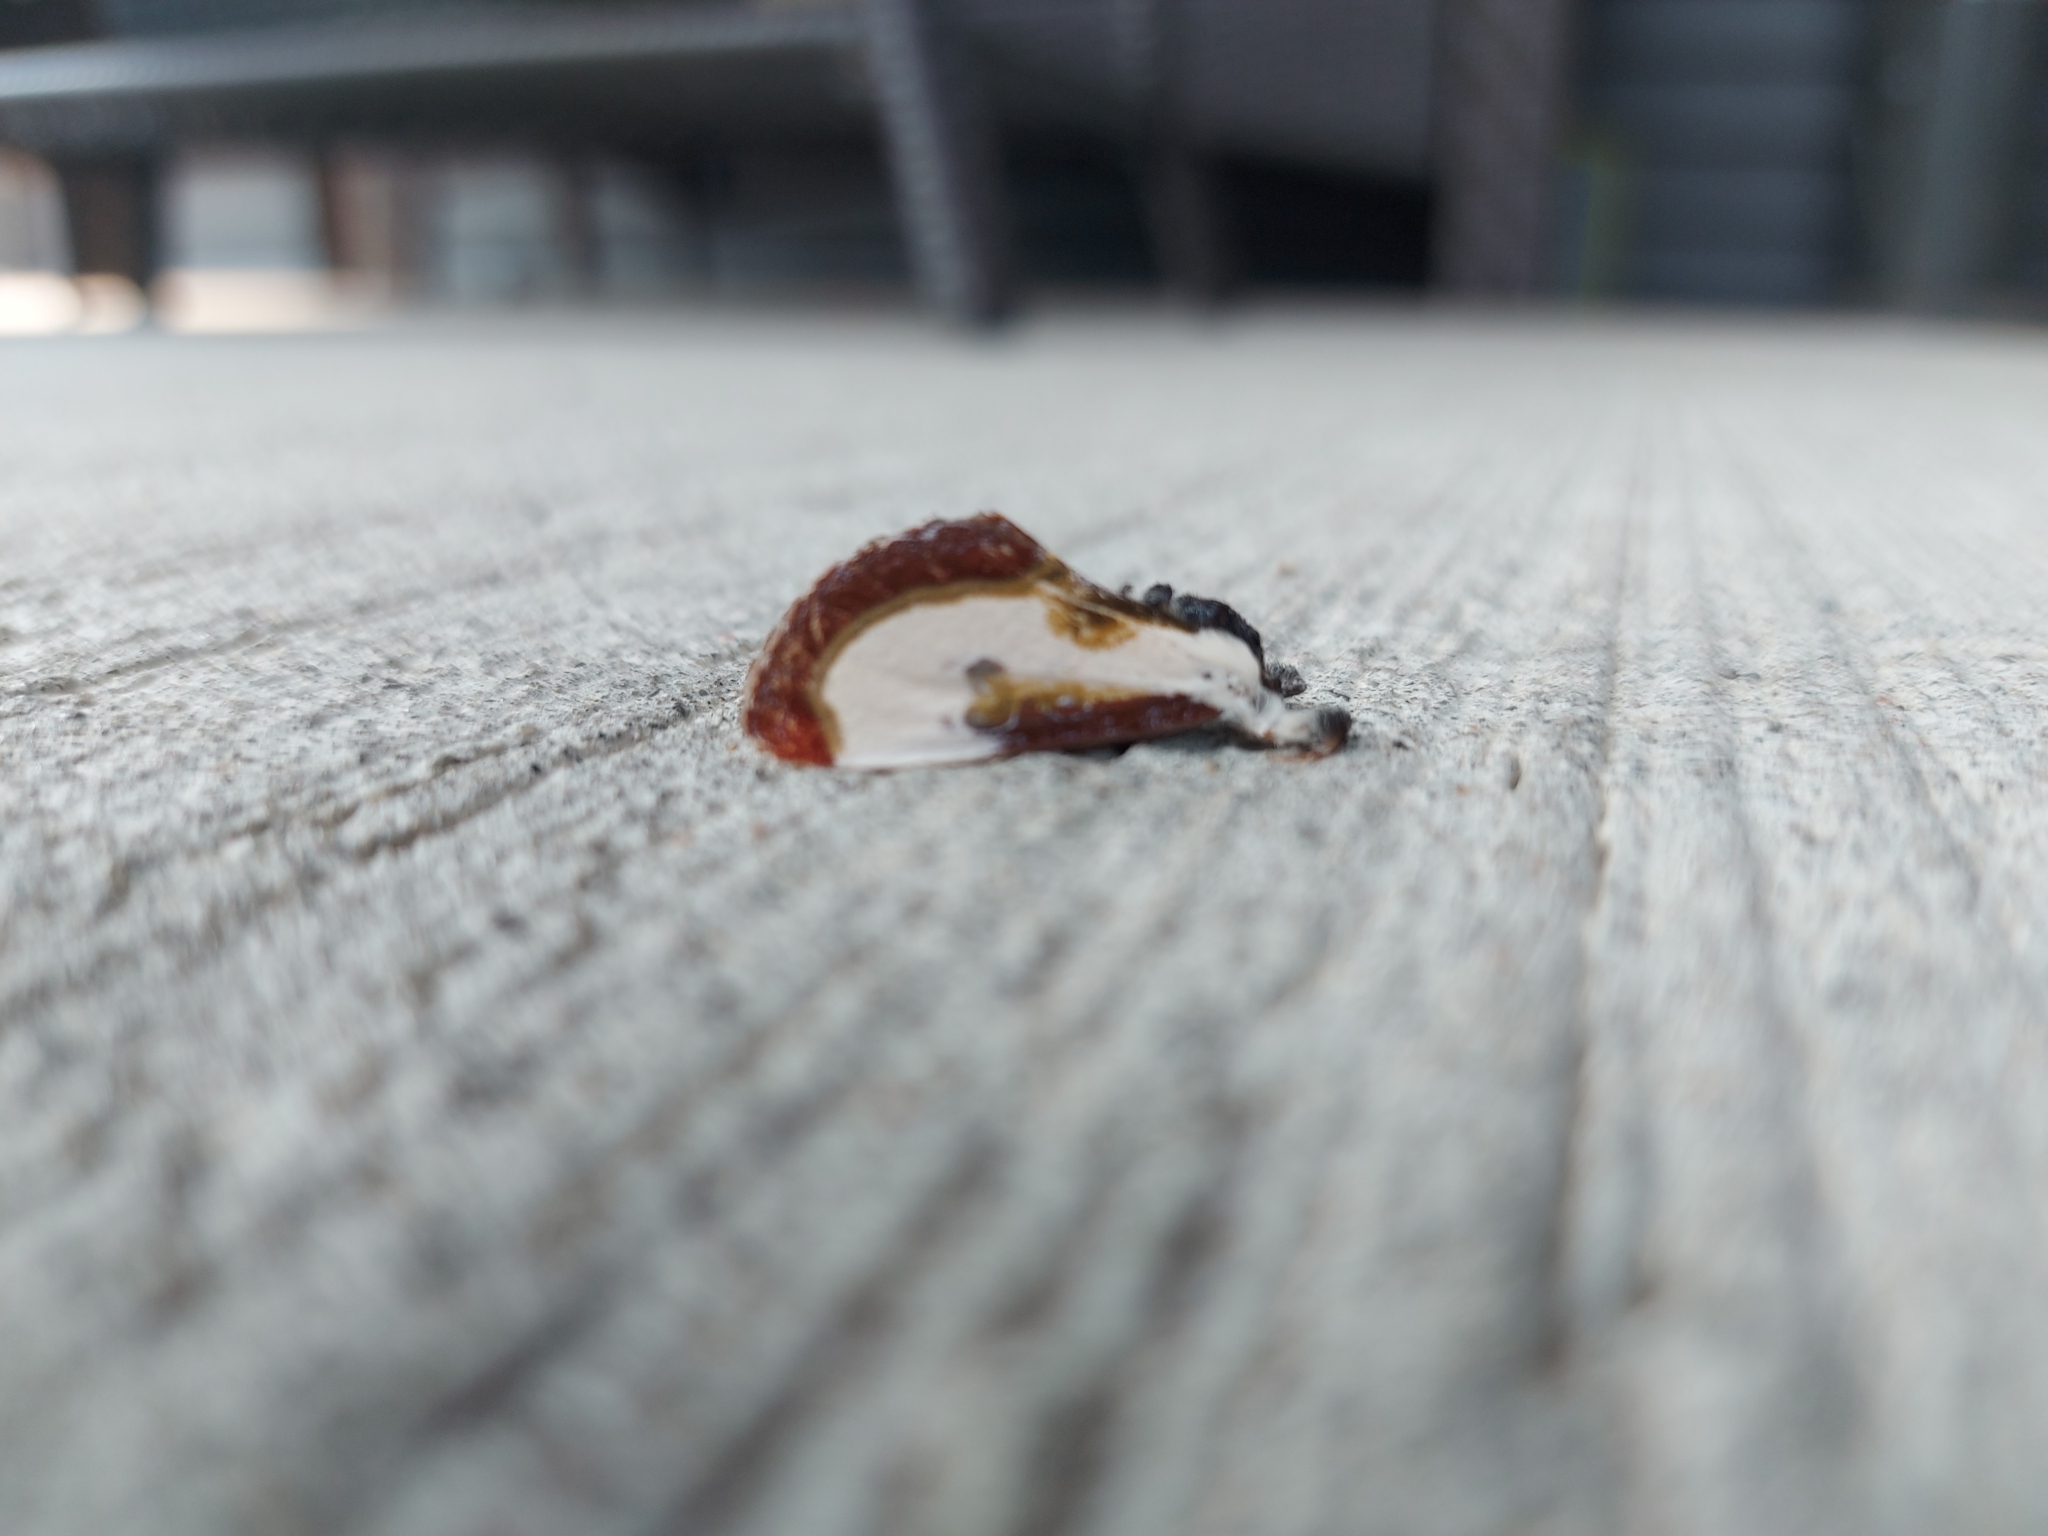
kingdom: Animalia
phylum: Arthropoda
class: Insecta
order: Lepidoptera
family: Noctuidae
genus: Eudryas
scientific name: Eudryas grata
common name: Beautiful wood-nymph
